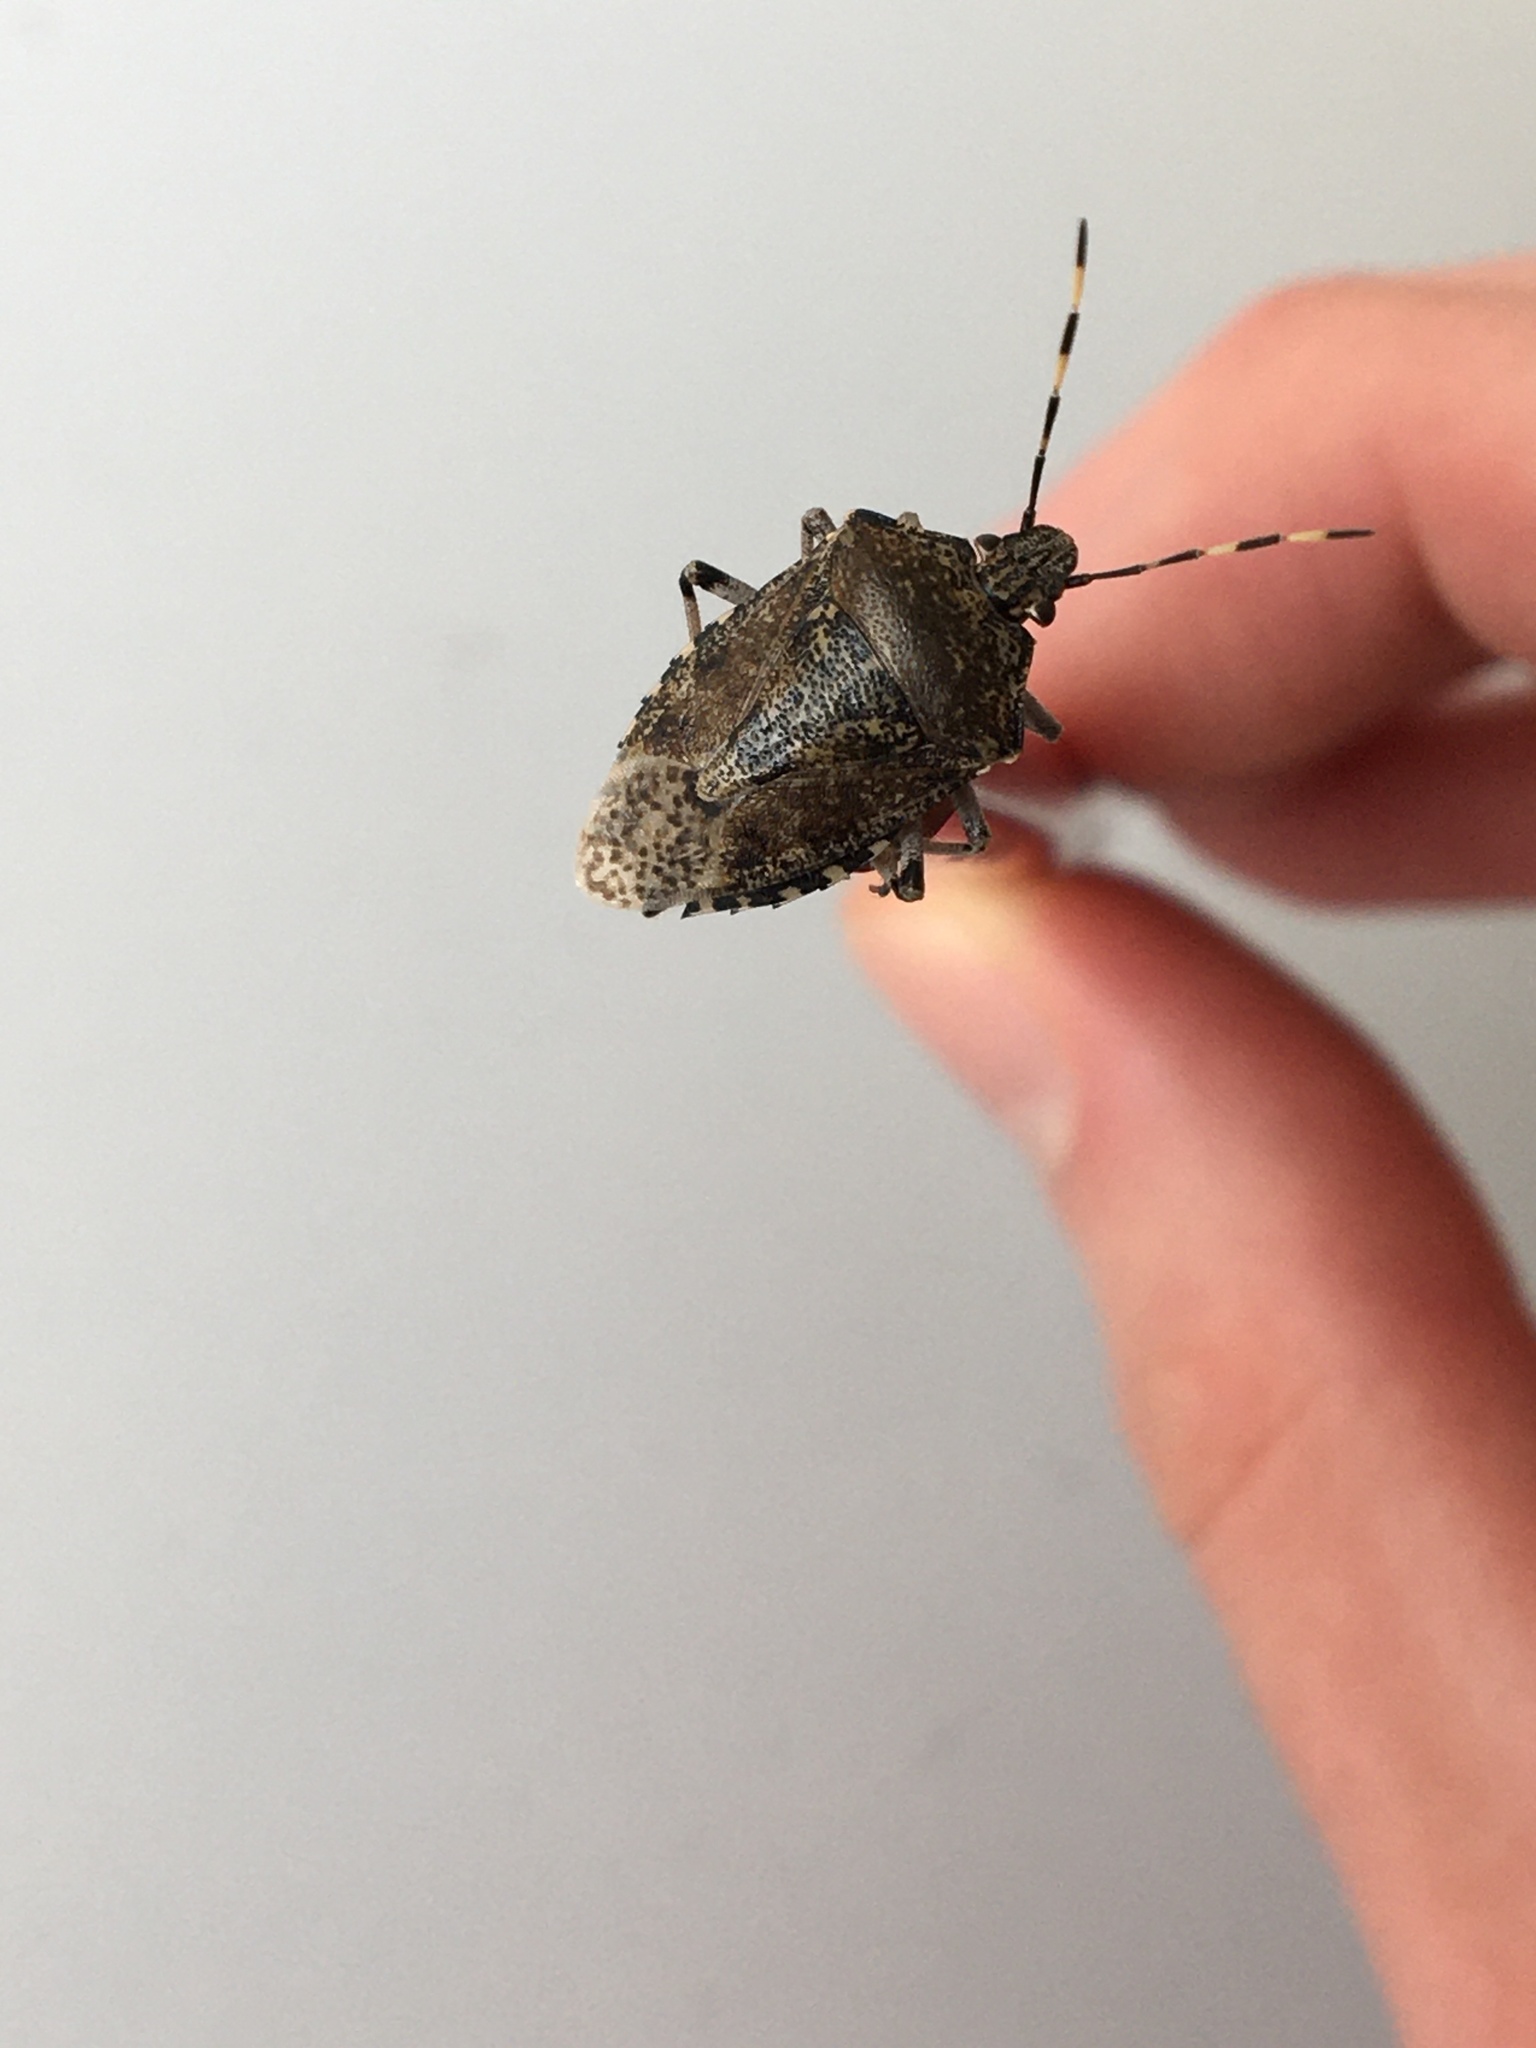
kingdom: Animalia
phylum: Arthropoda
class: Insecta
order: Hemiptera
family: Pentatomidae
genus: Rhaphigaster
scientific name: Rhaphigaster nebulosa
